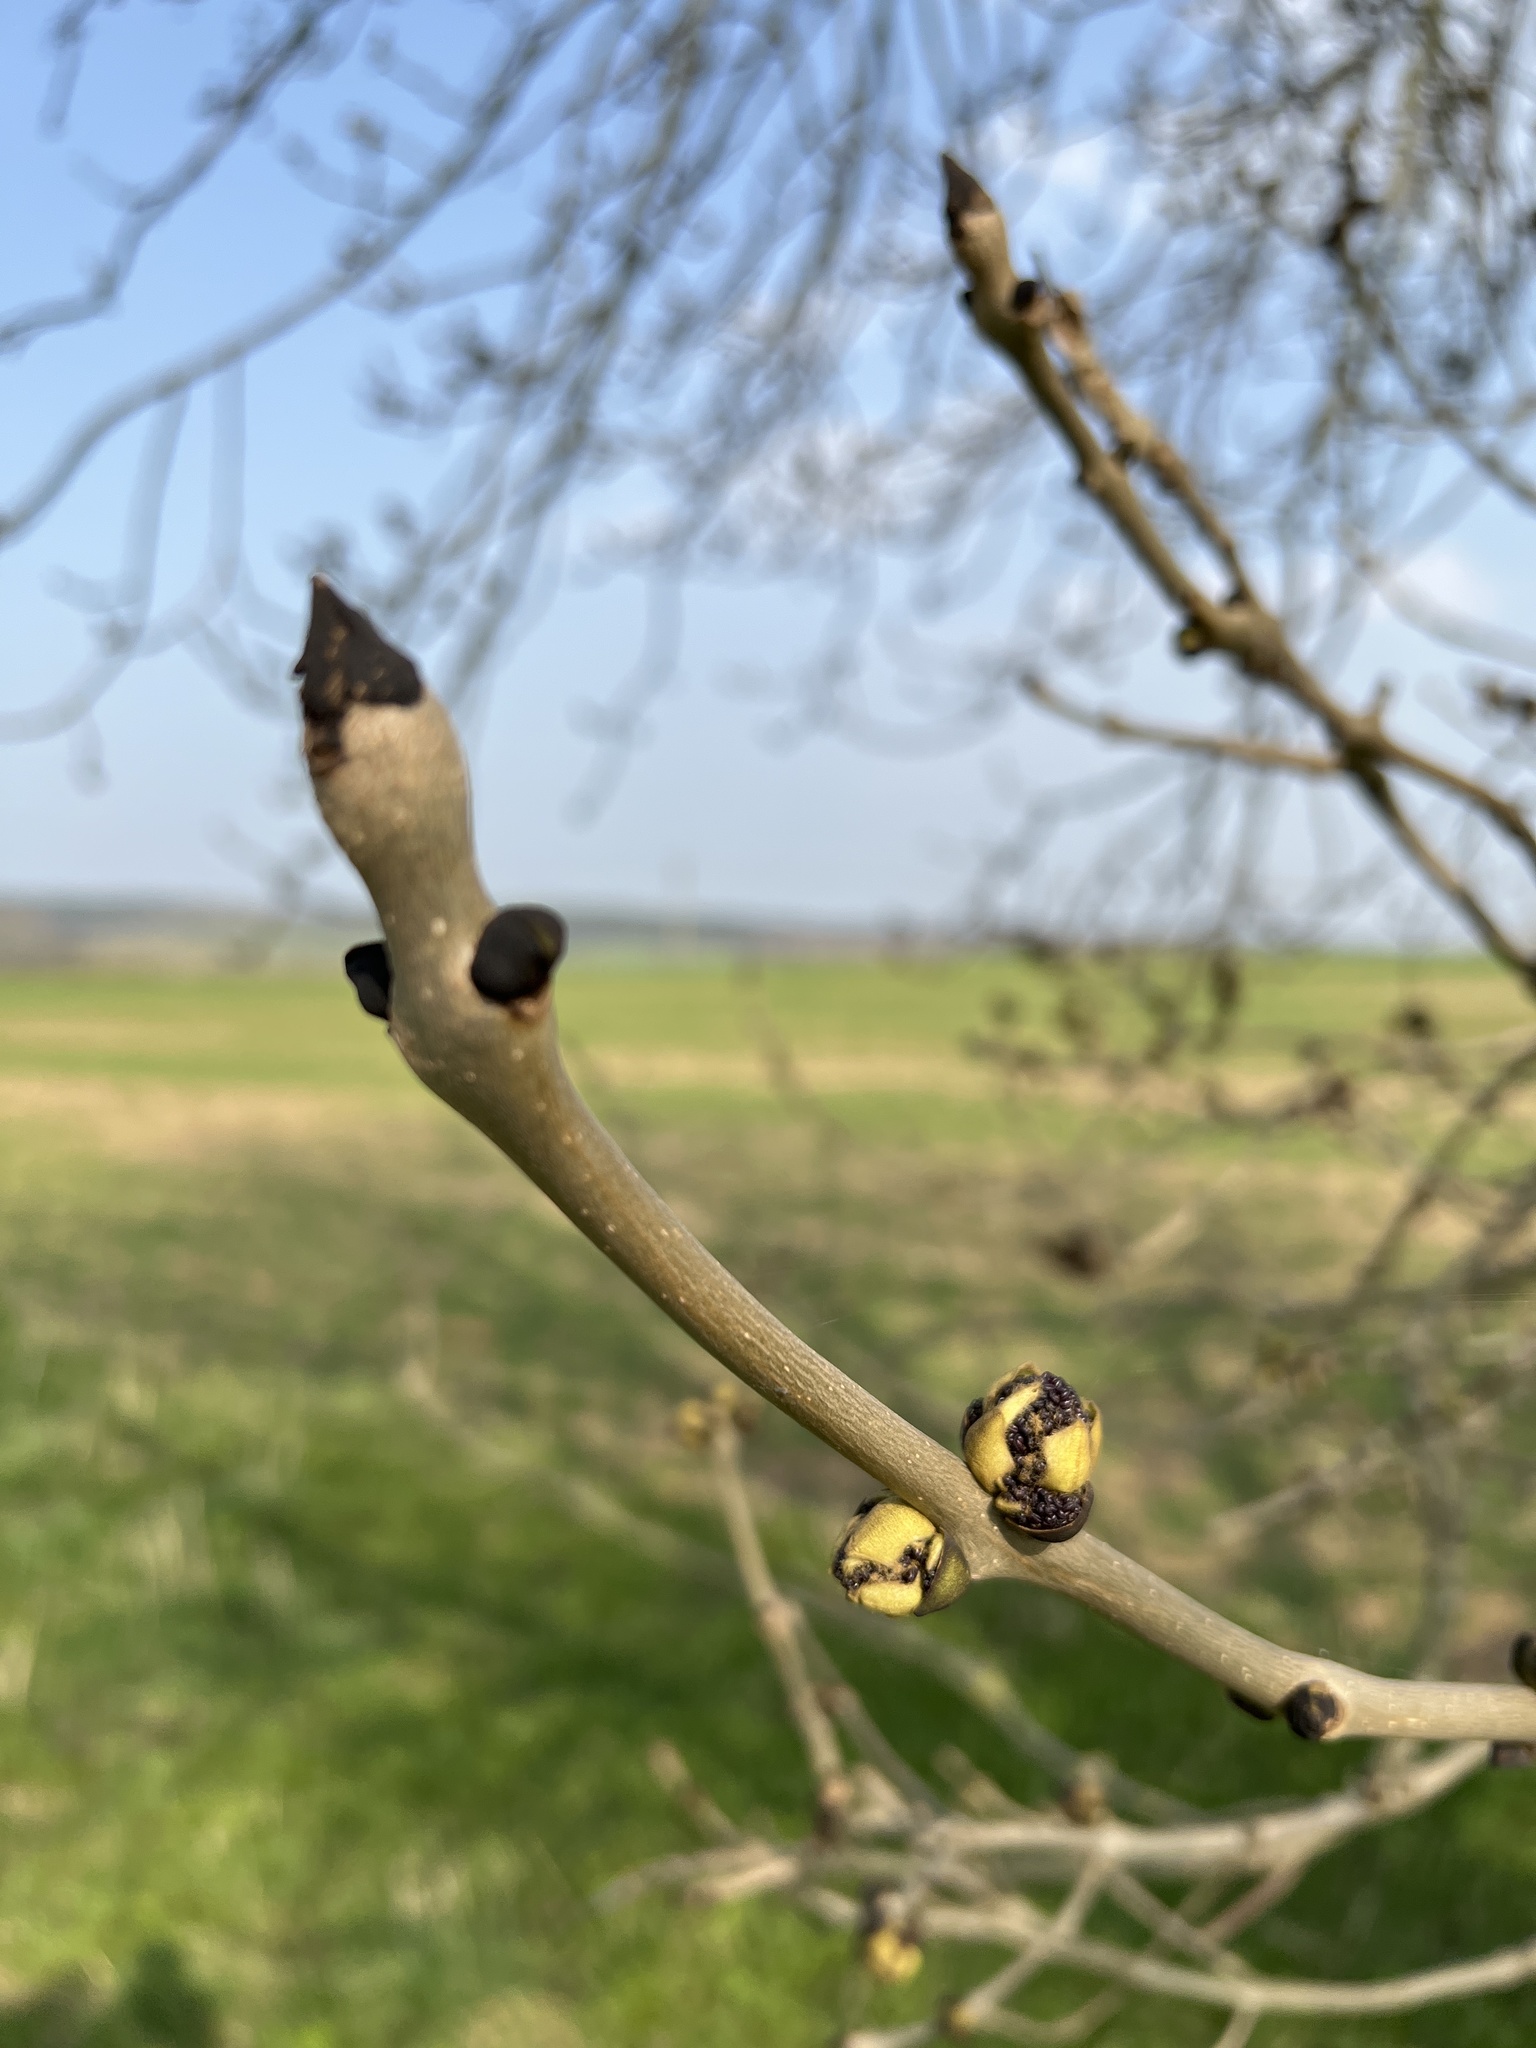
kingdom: Plantae
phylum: Tracheophyta
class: Magnoliopsida
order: Lamiales
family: Oleaceae
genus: Fraxinus
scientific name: Fraxinus excelsior
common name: European ash
